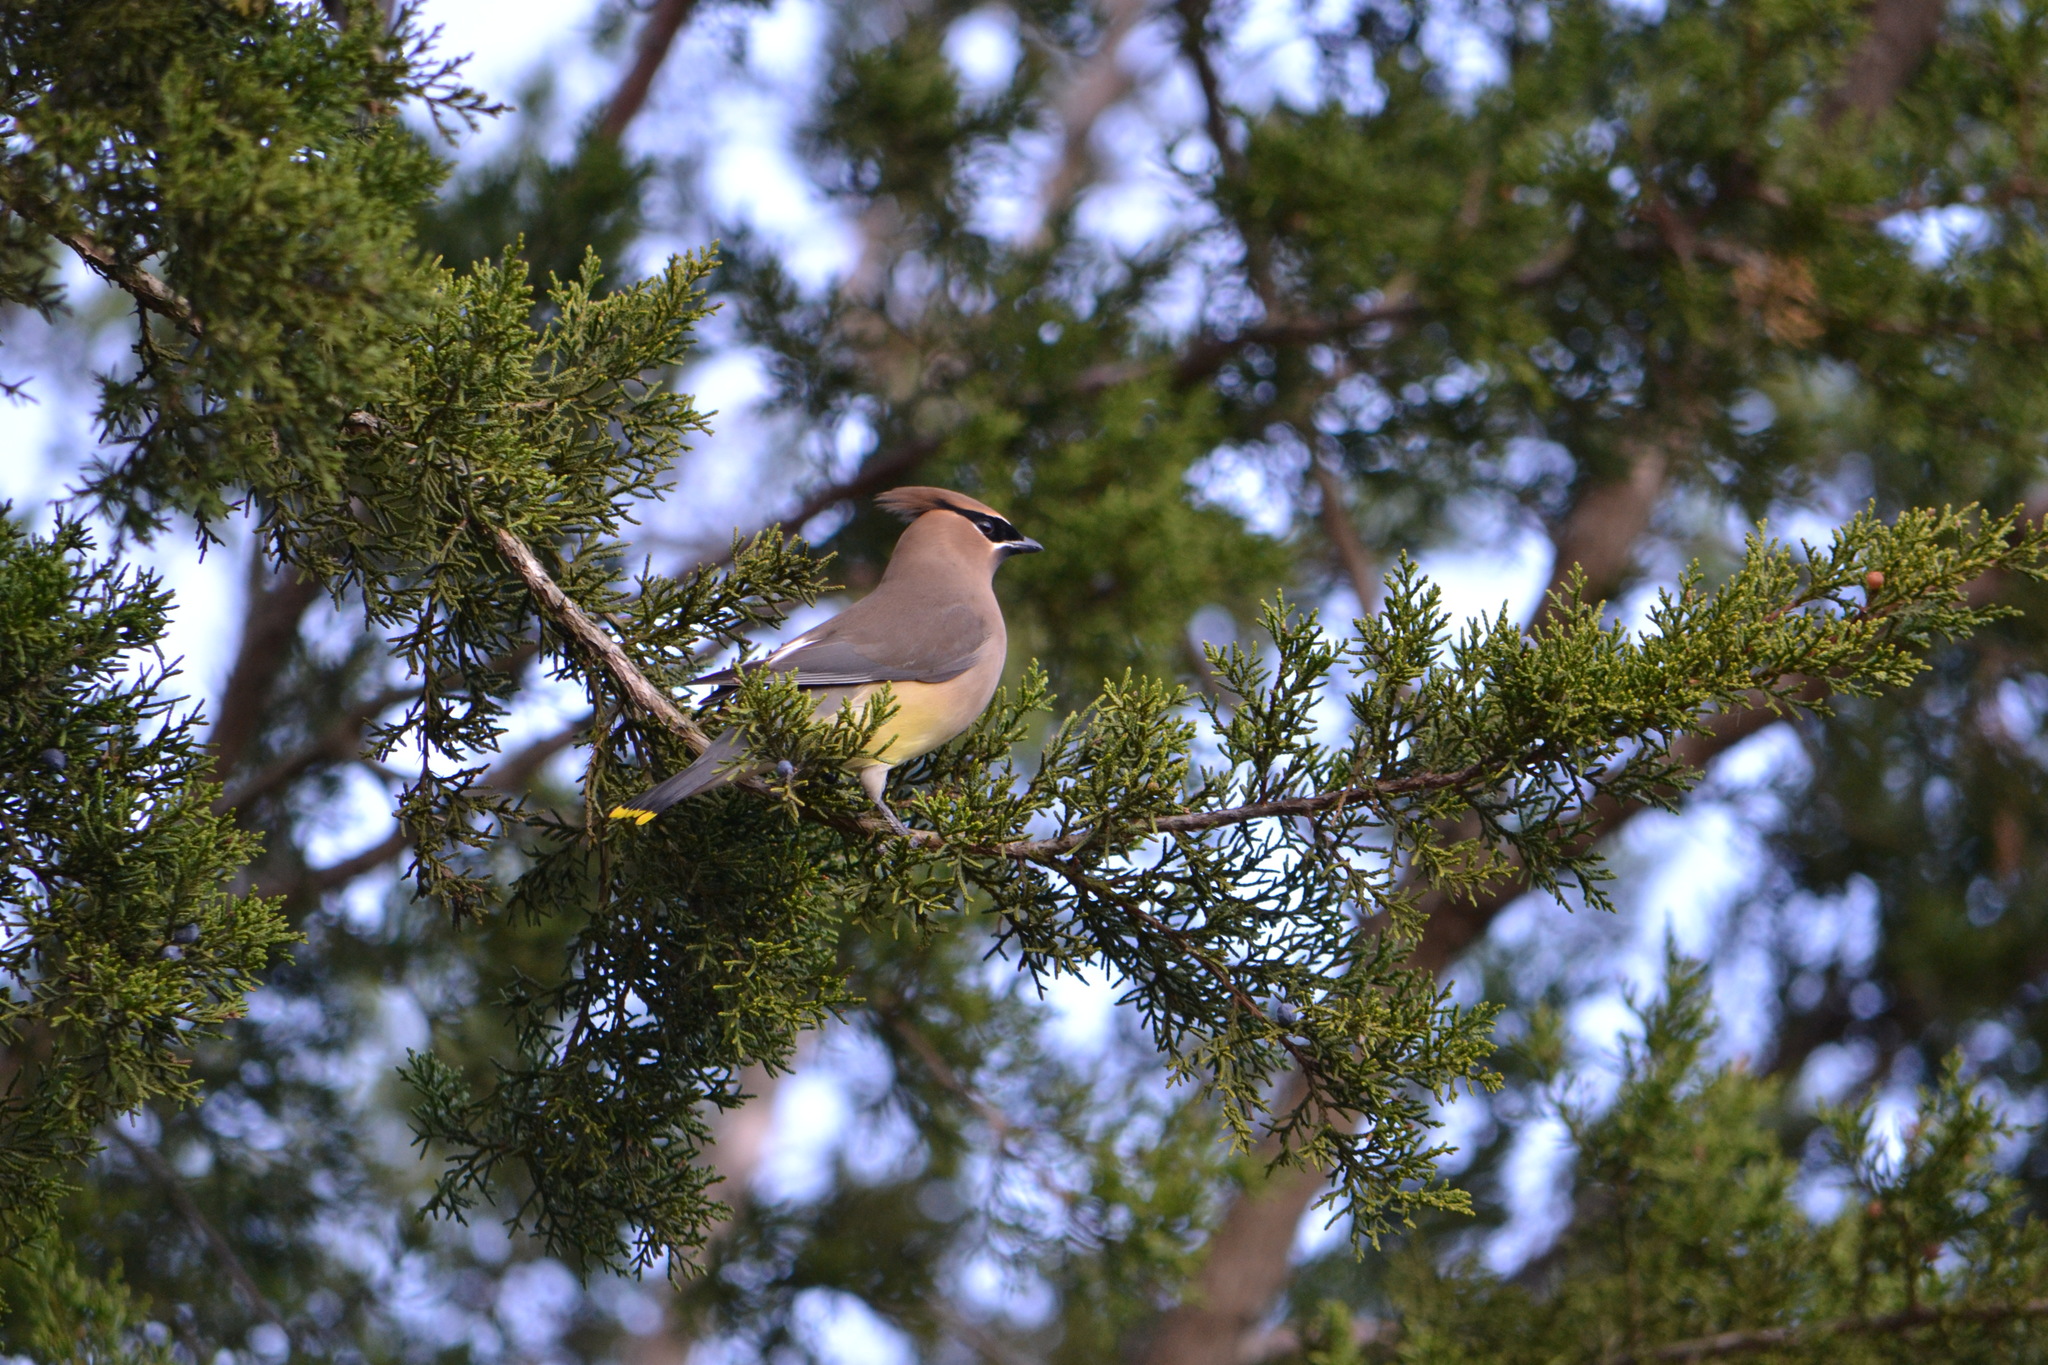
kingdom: Animalia
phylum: Chordata
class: Aves
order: Passeriformes
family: Bombycillidae
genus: Bombycilla
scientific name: Bombycilla cedrorum
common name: Cedar waxwing
